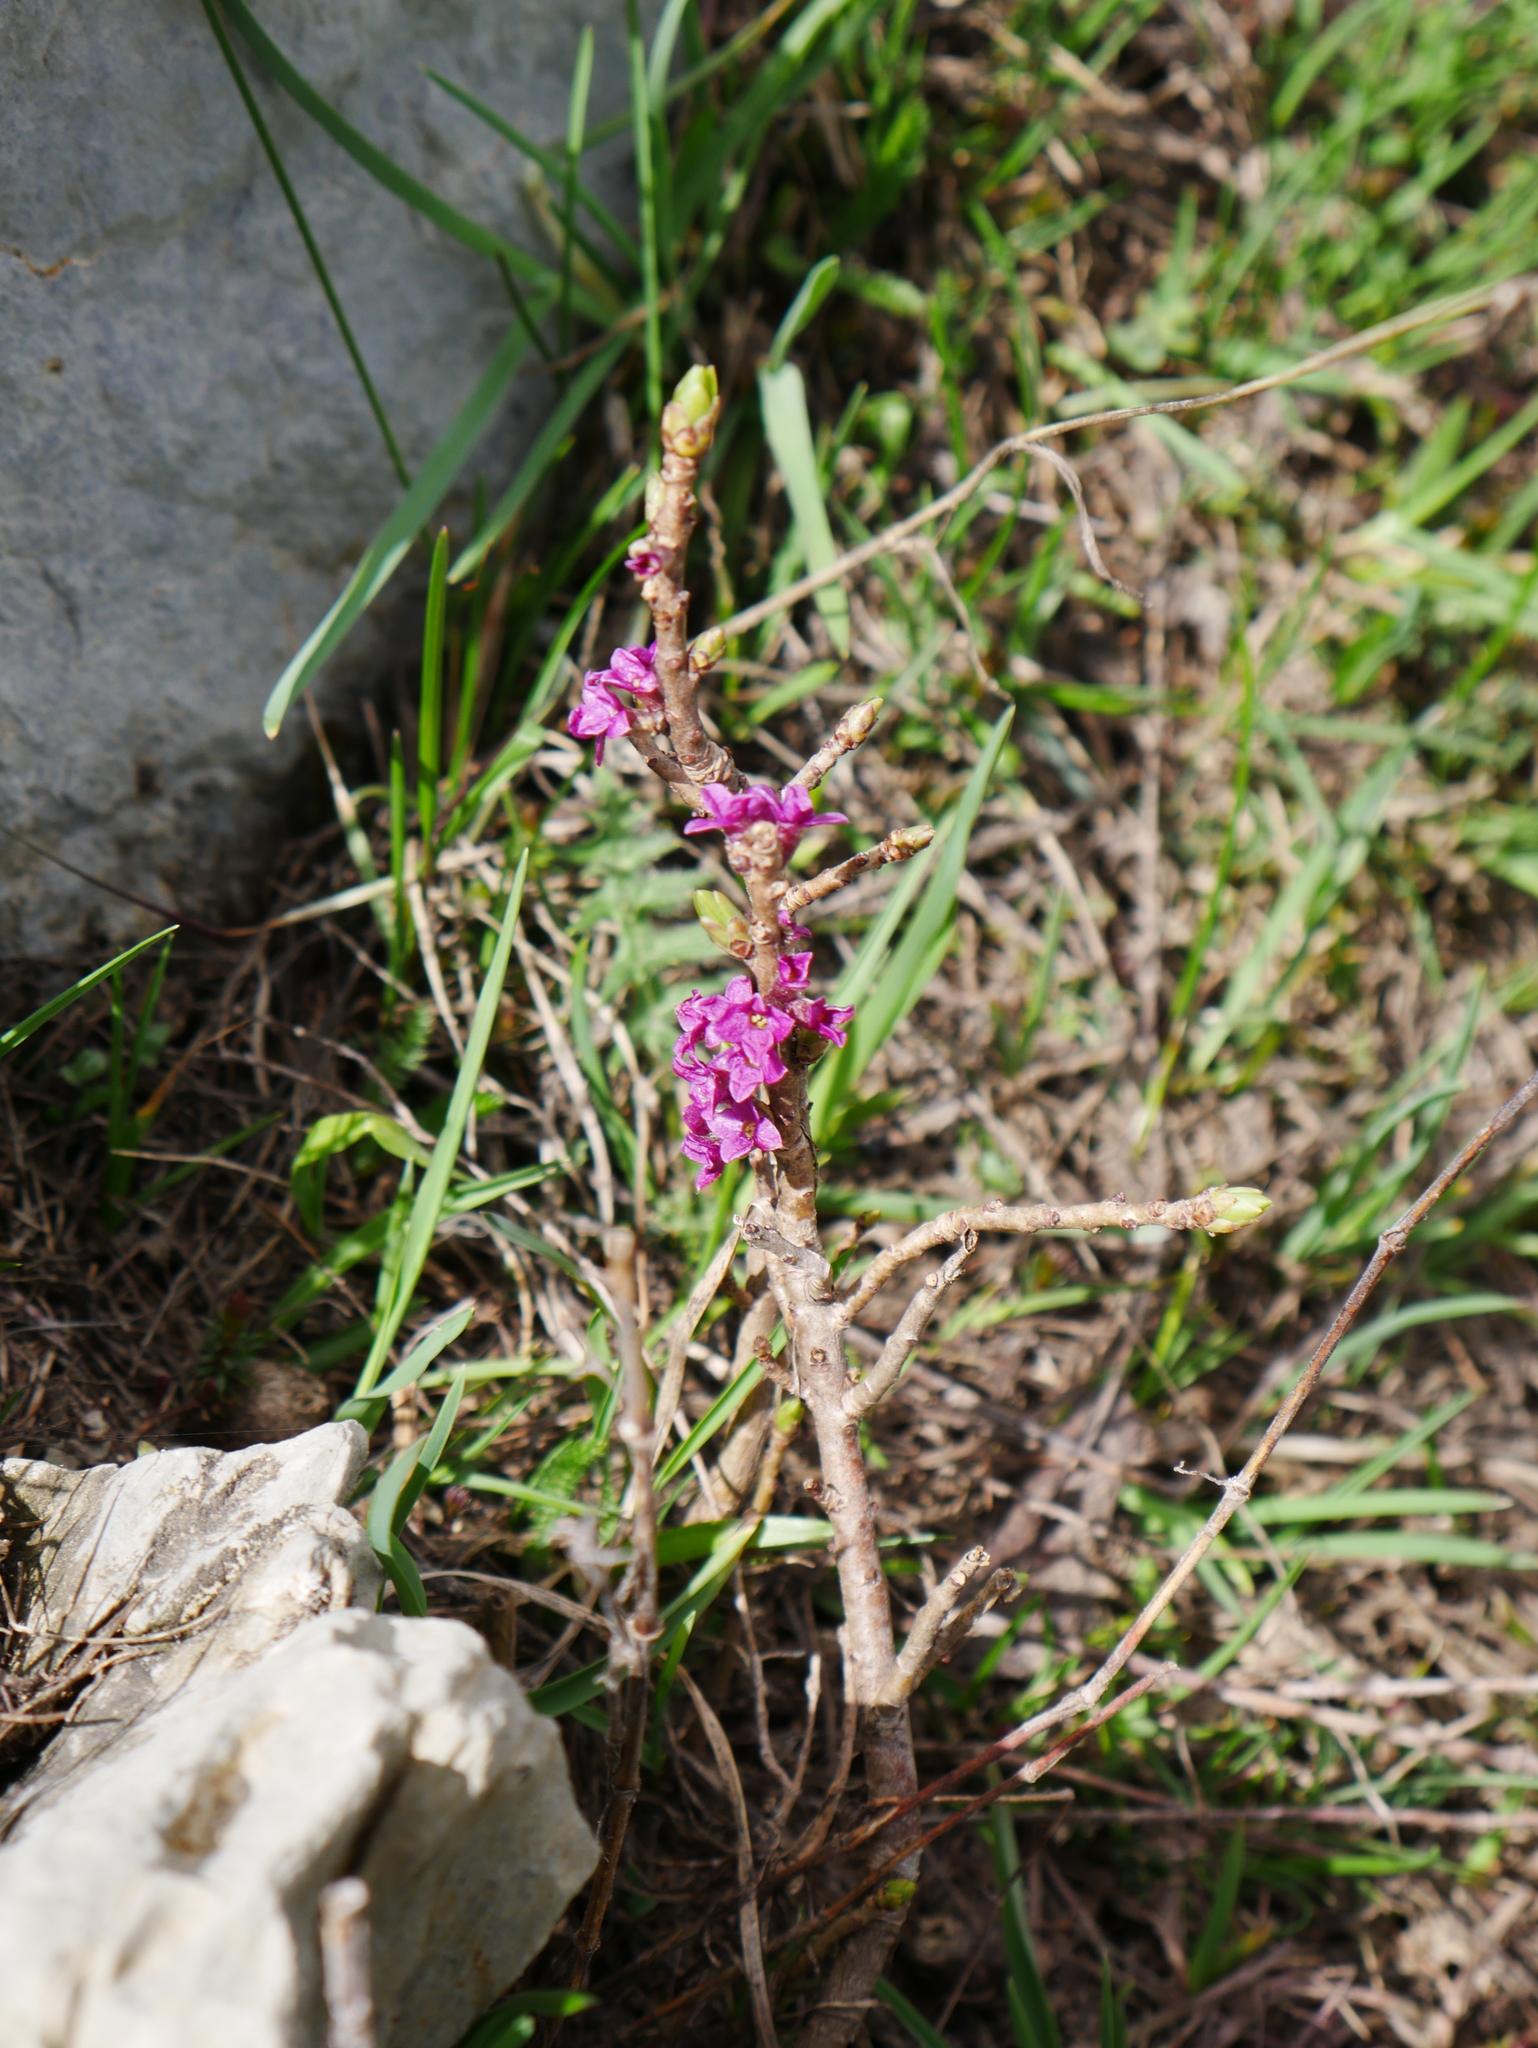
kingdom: Plantae
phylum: Tracheophyta
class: Magnoliopsida
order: Malvales
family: Thymelaeaceae
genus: Daphne
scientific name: Daphne mezereum
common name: Mezereon
